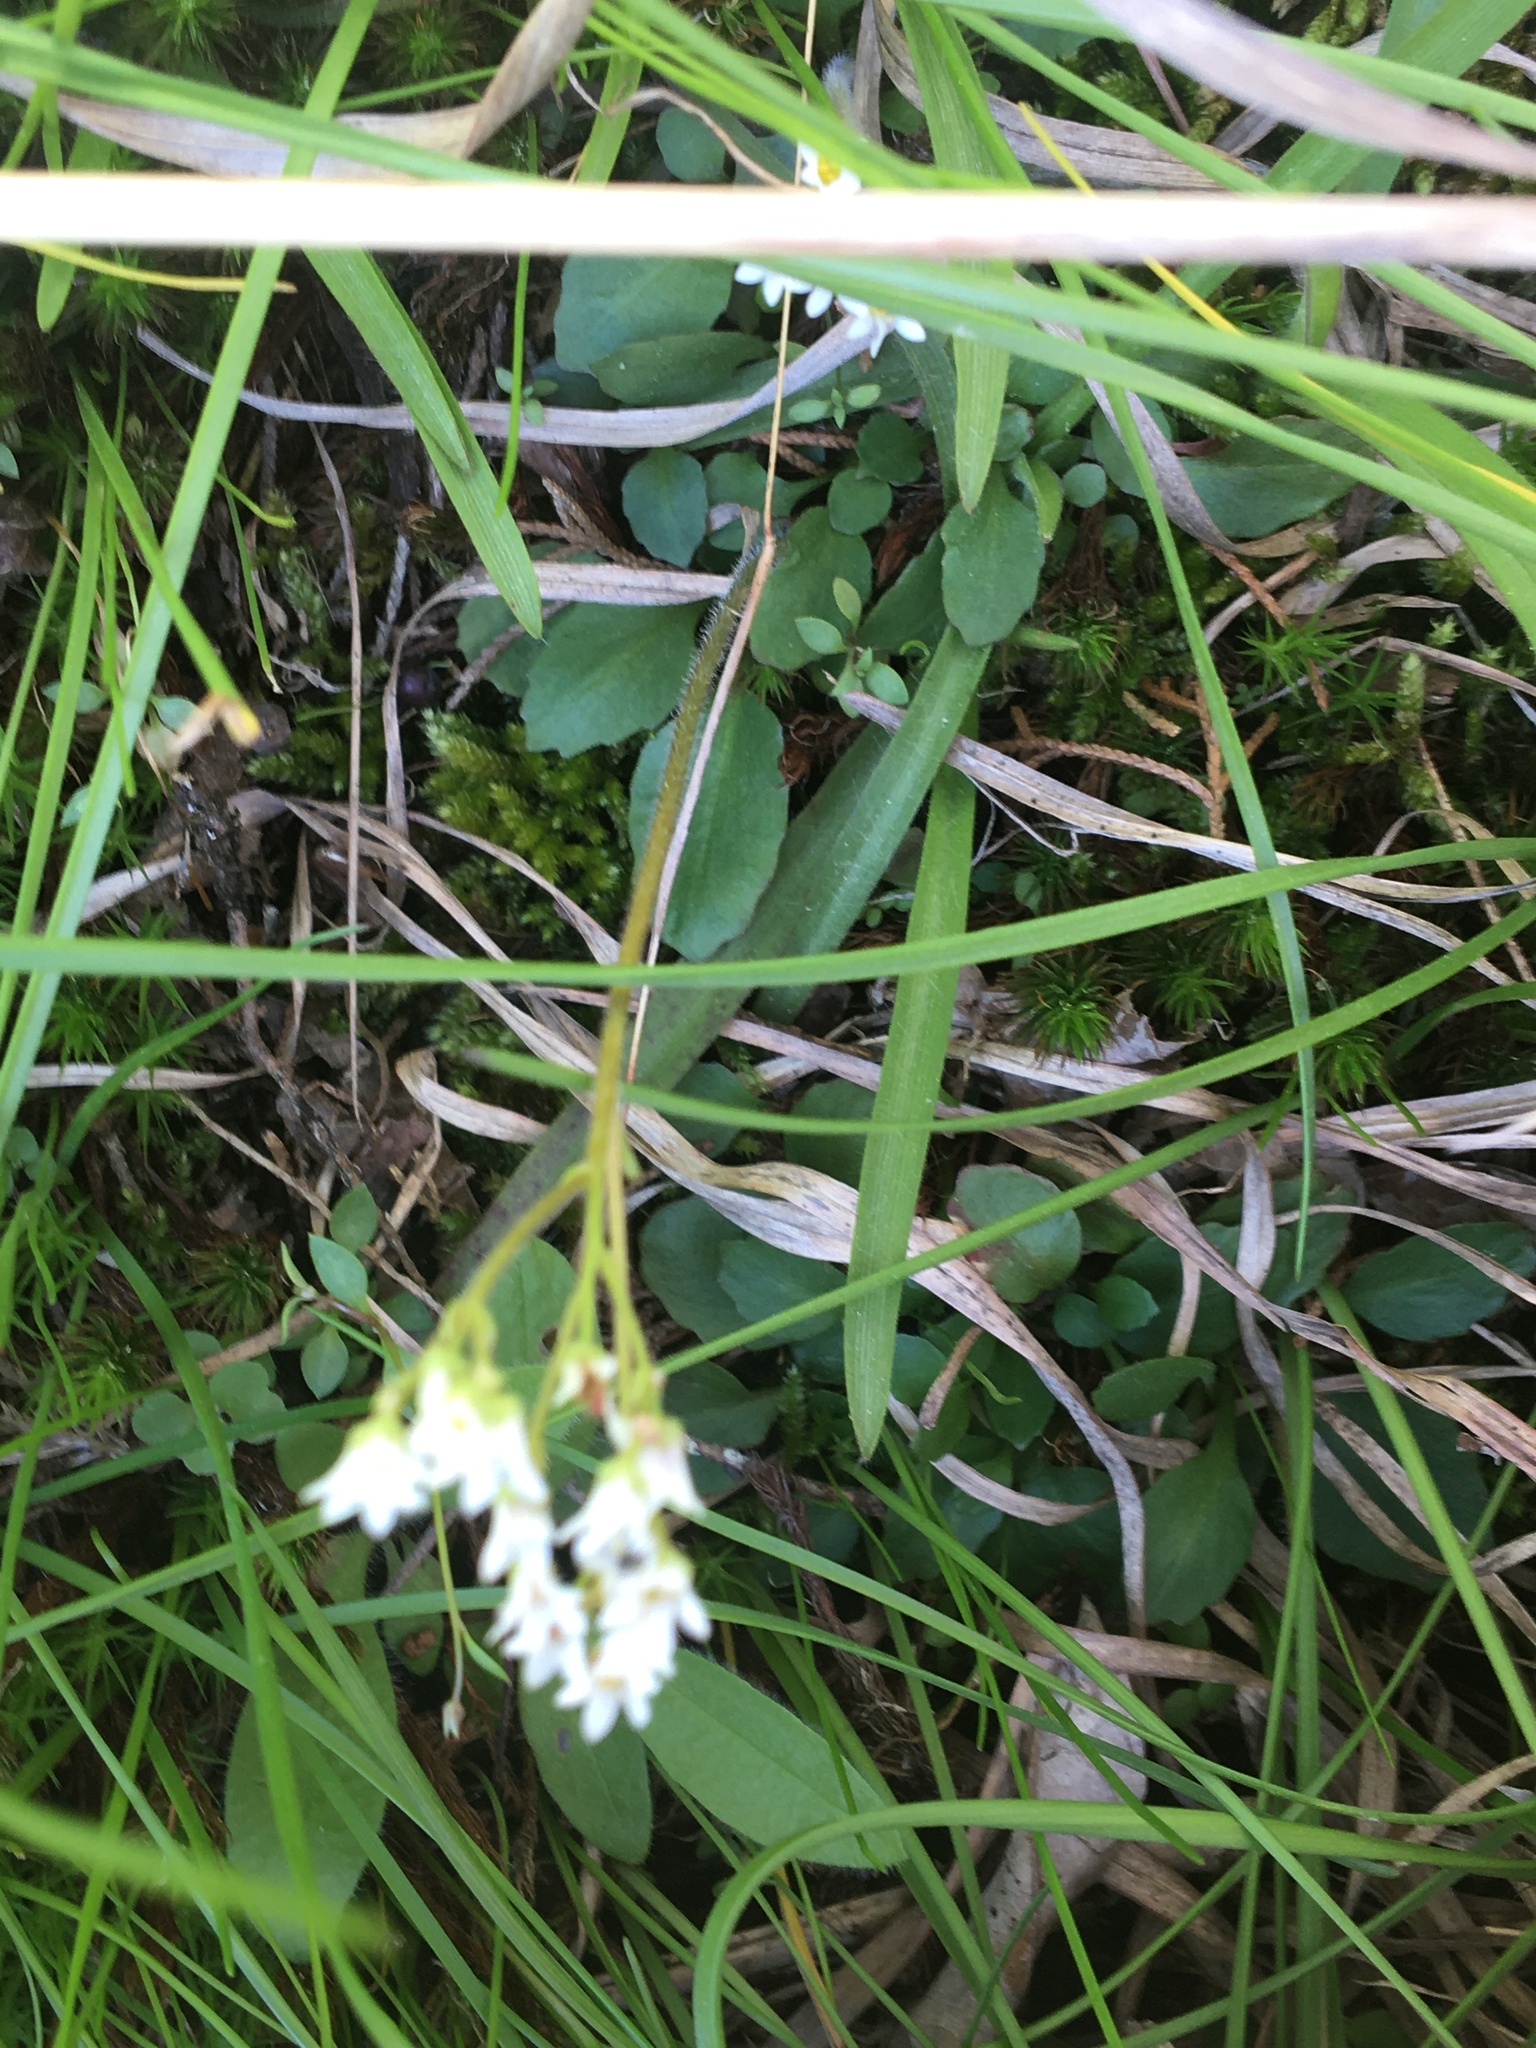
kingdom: Plantae
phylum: Tracheophyta
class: Magnoliopsida
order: Saxifragales
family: Saxifragaceae
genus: Micranthes
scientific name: Micranthes virginiensis
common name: Early saxifrage
